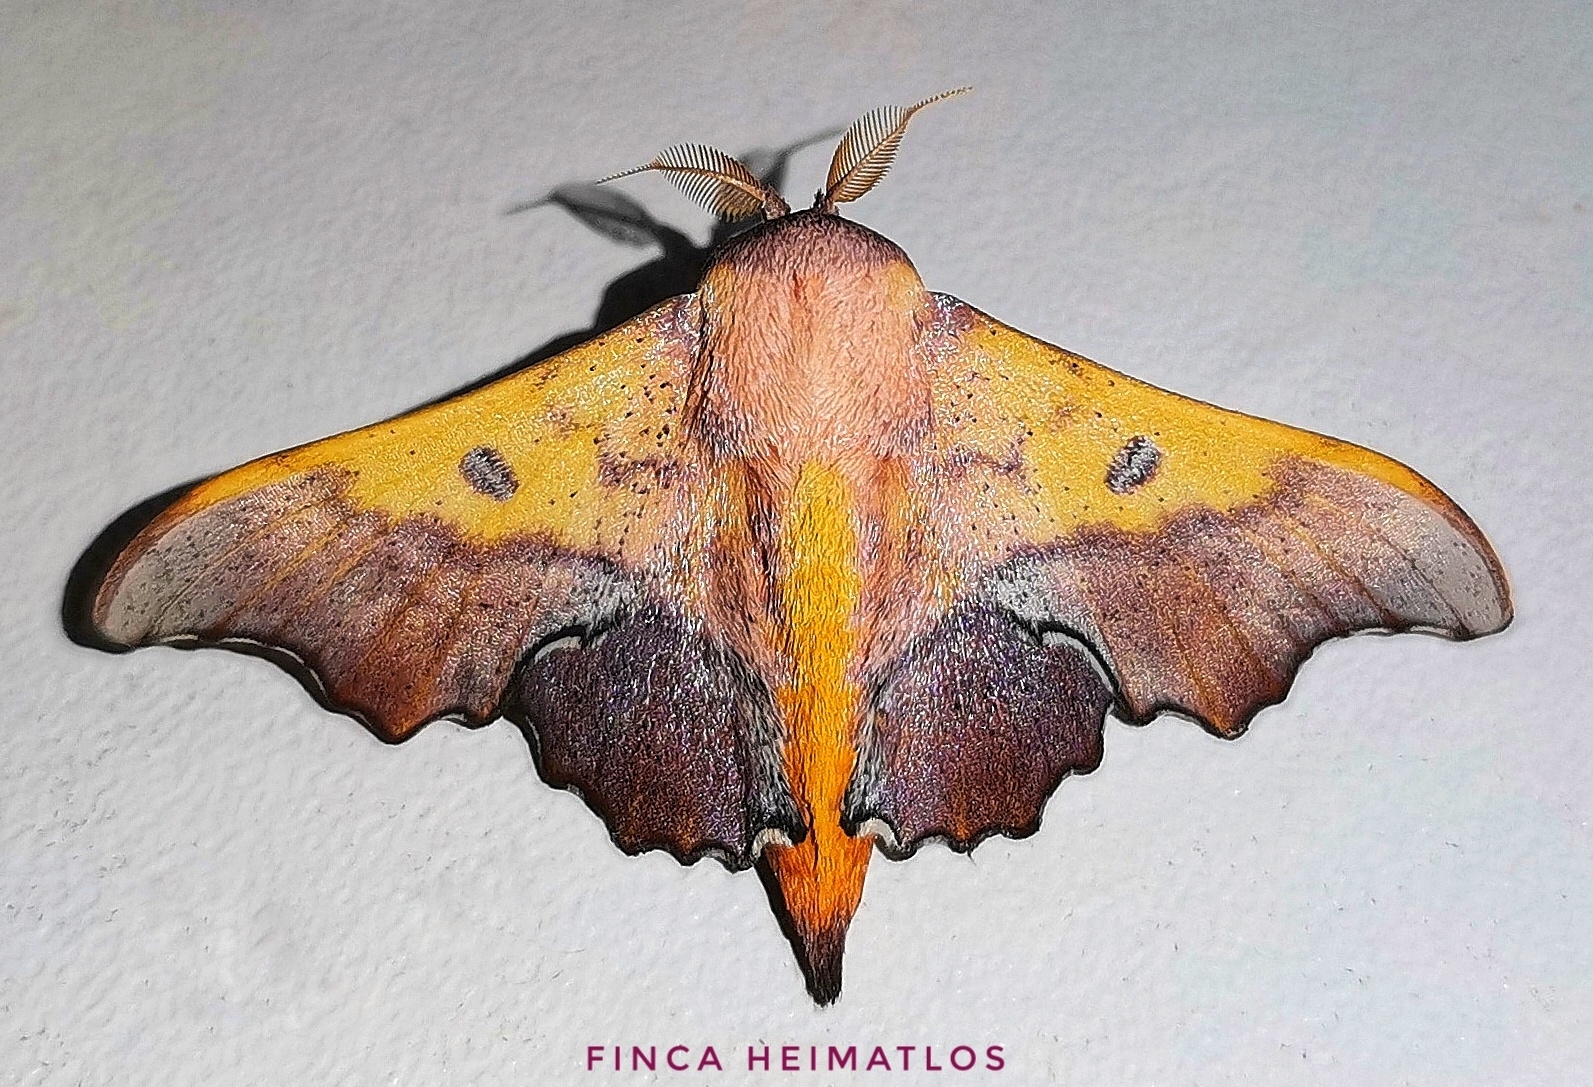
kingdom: Animalia
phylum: Arthropoda
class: Insecta
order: Lepidoptera
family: Mimallonidae
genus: Lacosoma
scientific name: Lacosoma valeroides
